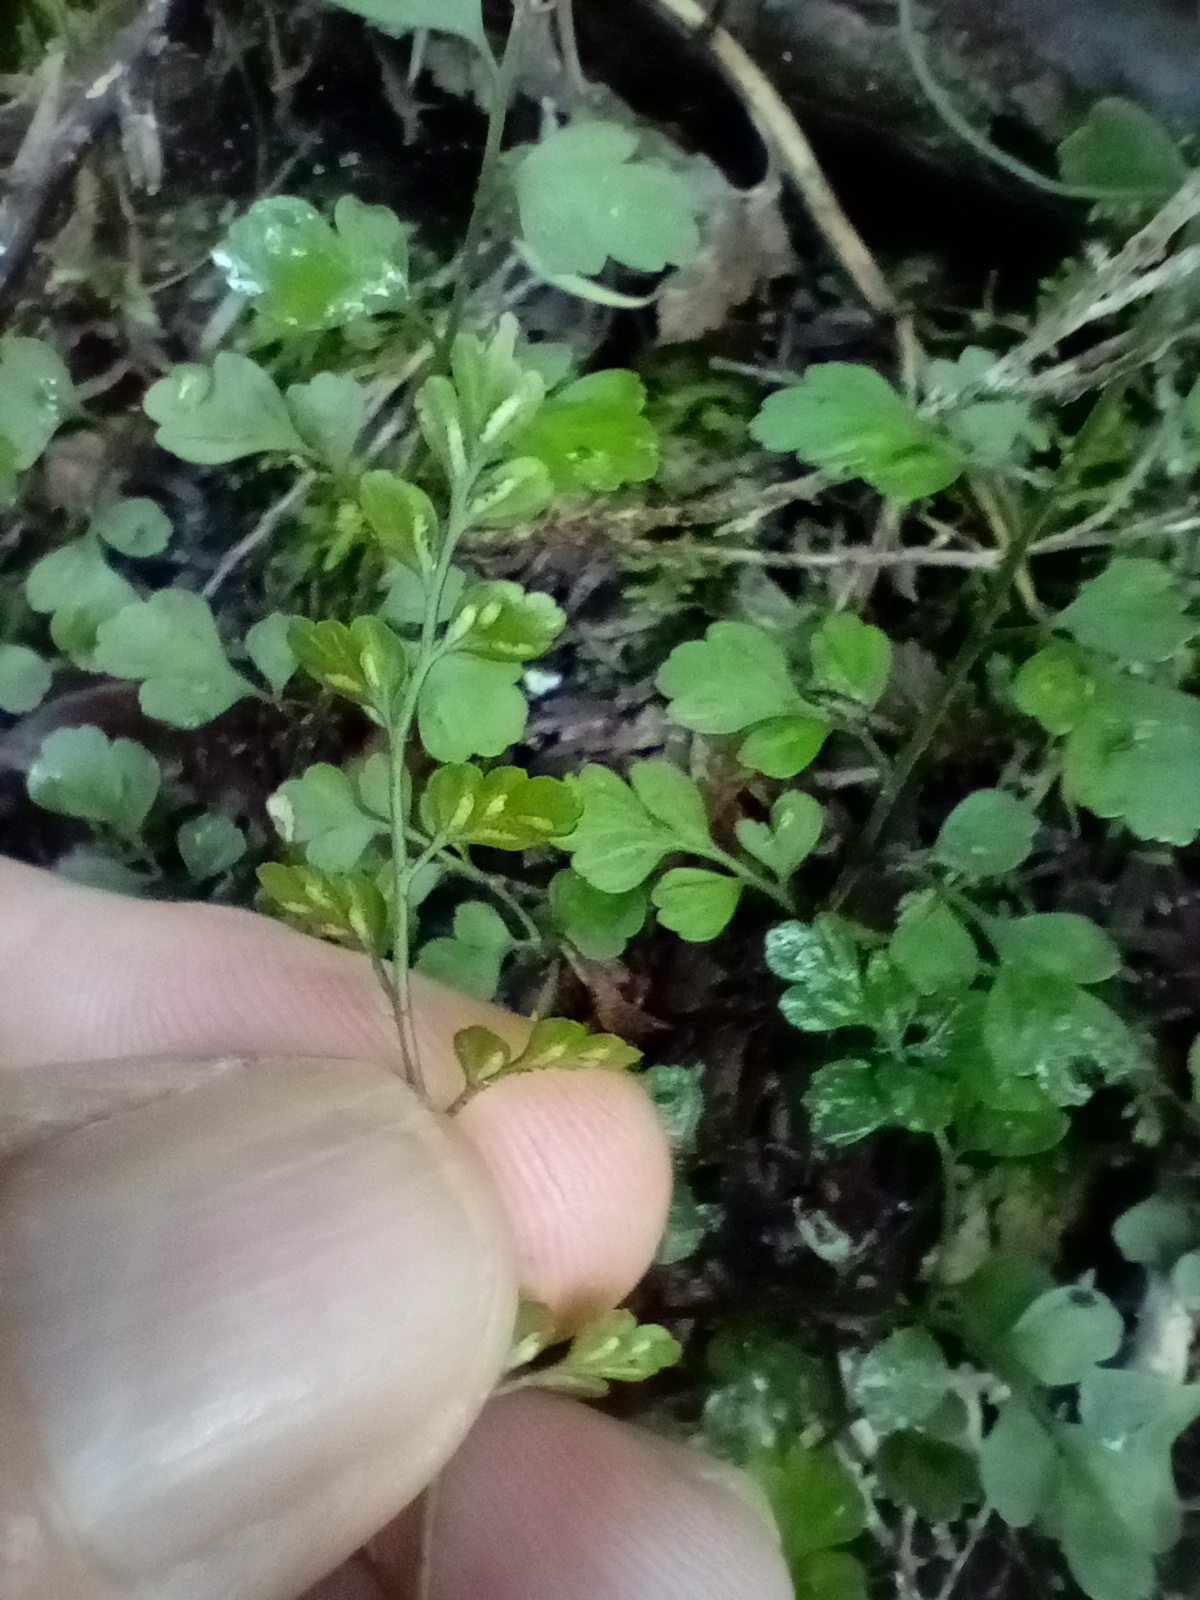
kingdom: Plantae
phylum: Tracheophyta
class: Polypodiopsida
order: Polypodiales
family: Aspleniaceae
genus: Asplenium
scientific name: Asplenium hookerianum
